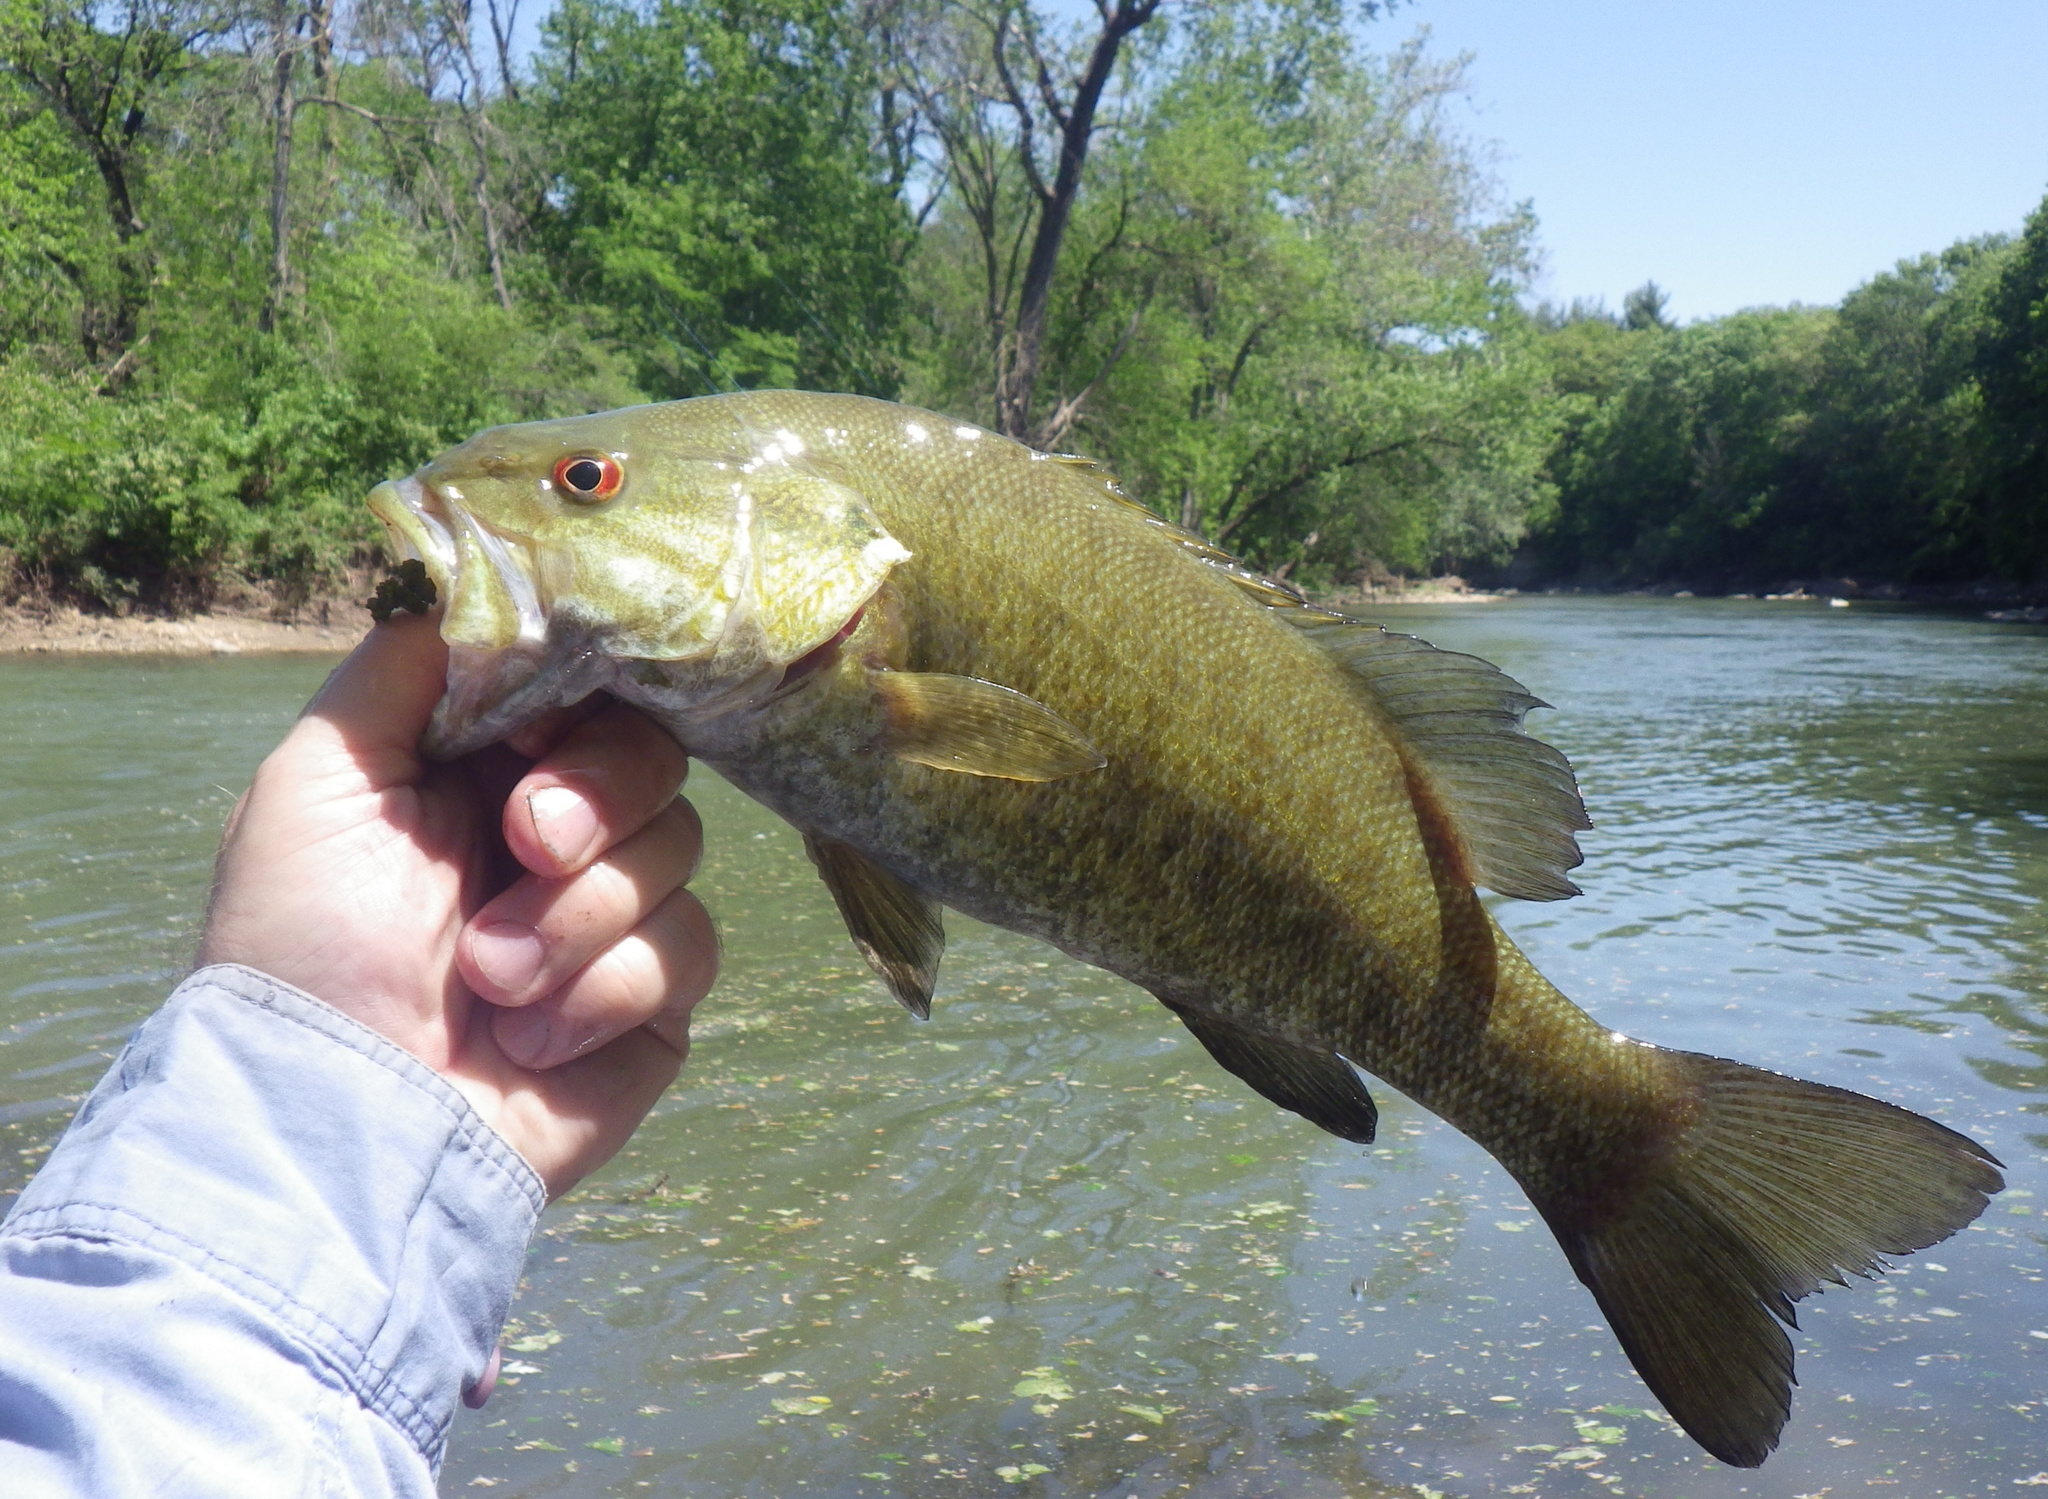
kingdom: Animalia
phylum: Chordata
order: Perciformes
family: Centrarchidae
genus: Micropterus
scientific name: Micropterus dolomieu
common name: Smallmouth bass
